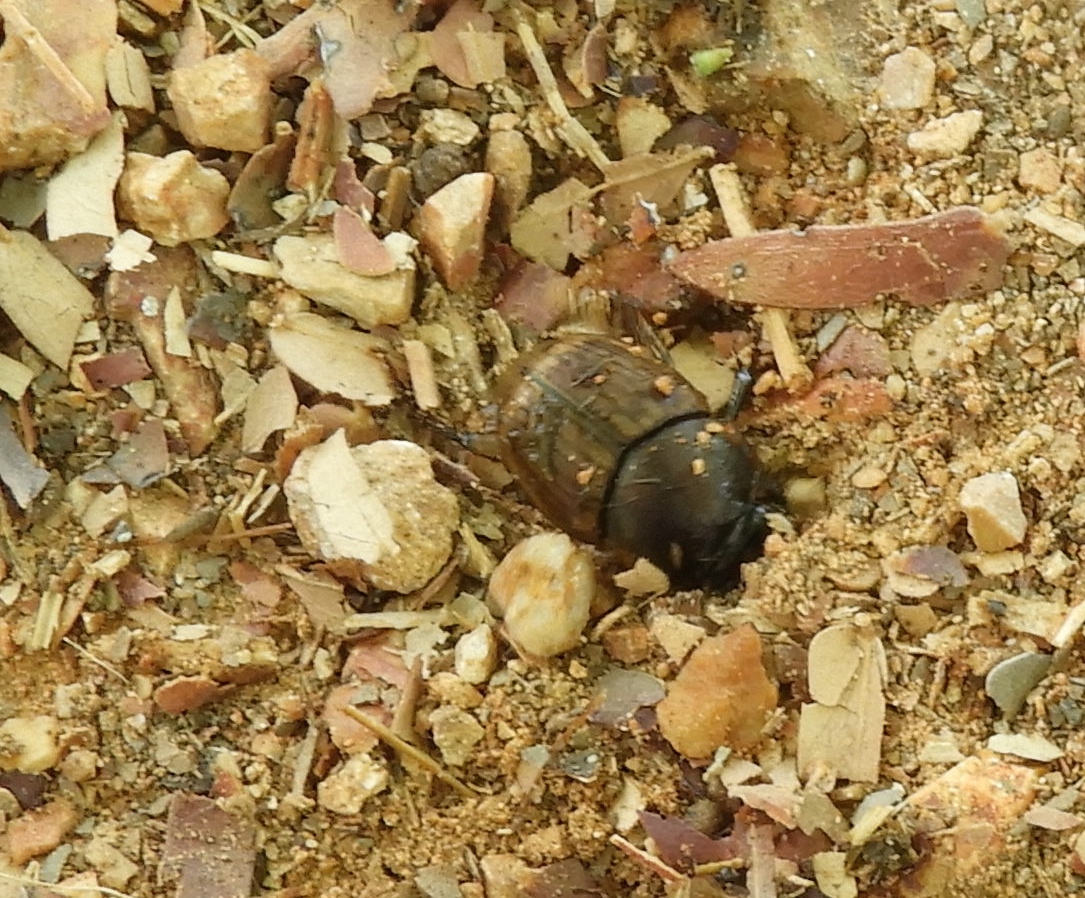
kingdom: Animalia
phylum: Arthropoda
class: Insecta
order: Coleoptera
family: Scarabaeidae
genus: Digitonthophagus
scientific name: Digitonthophagus gazella
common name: Brown dung beetle
